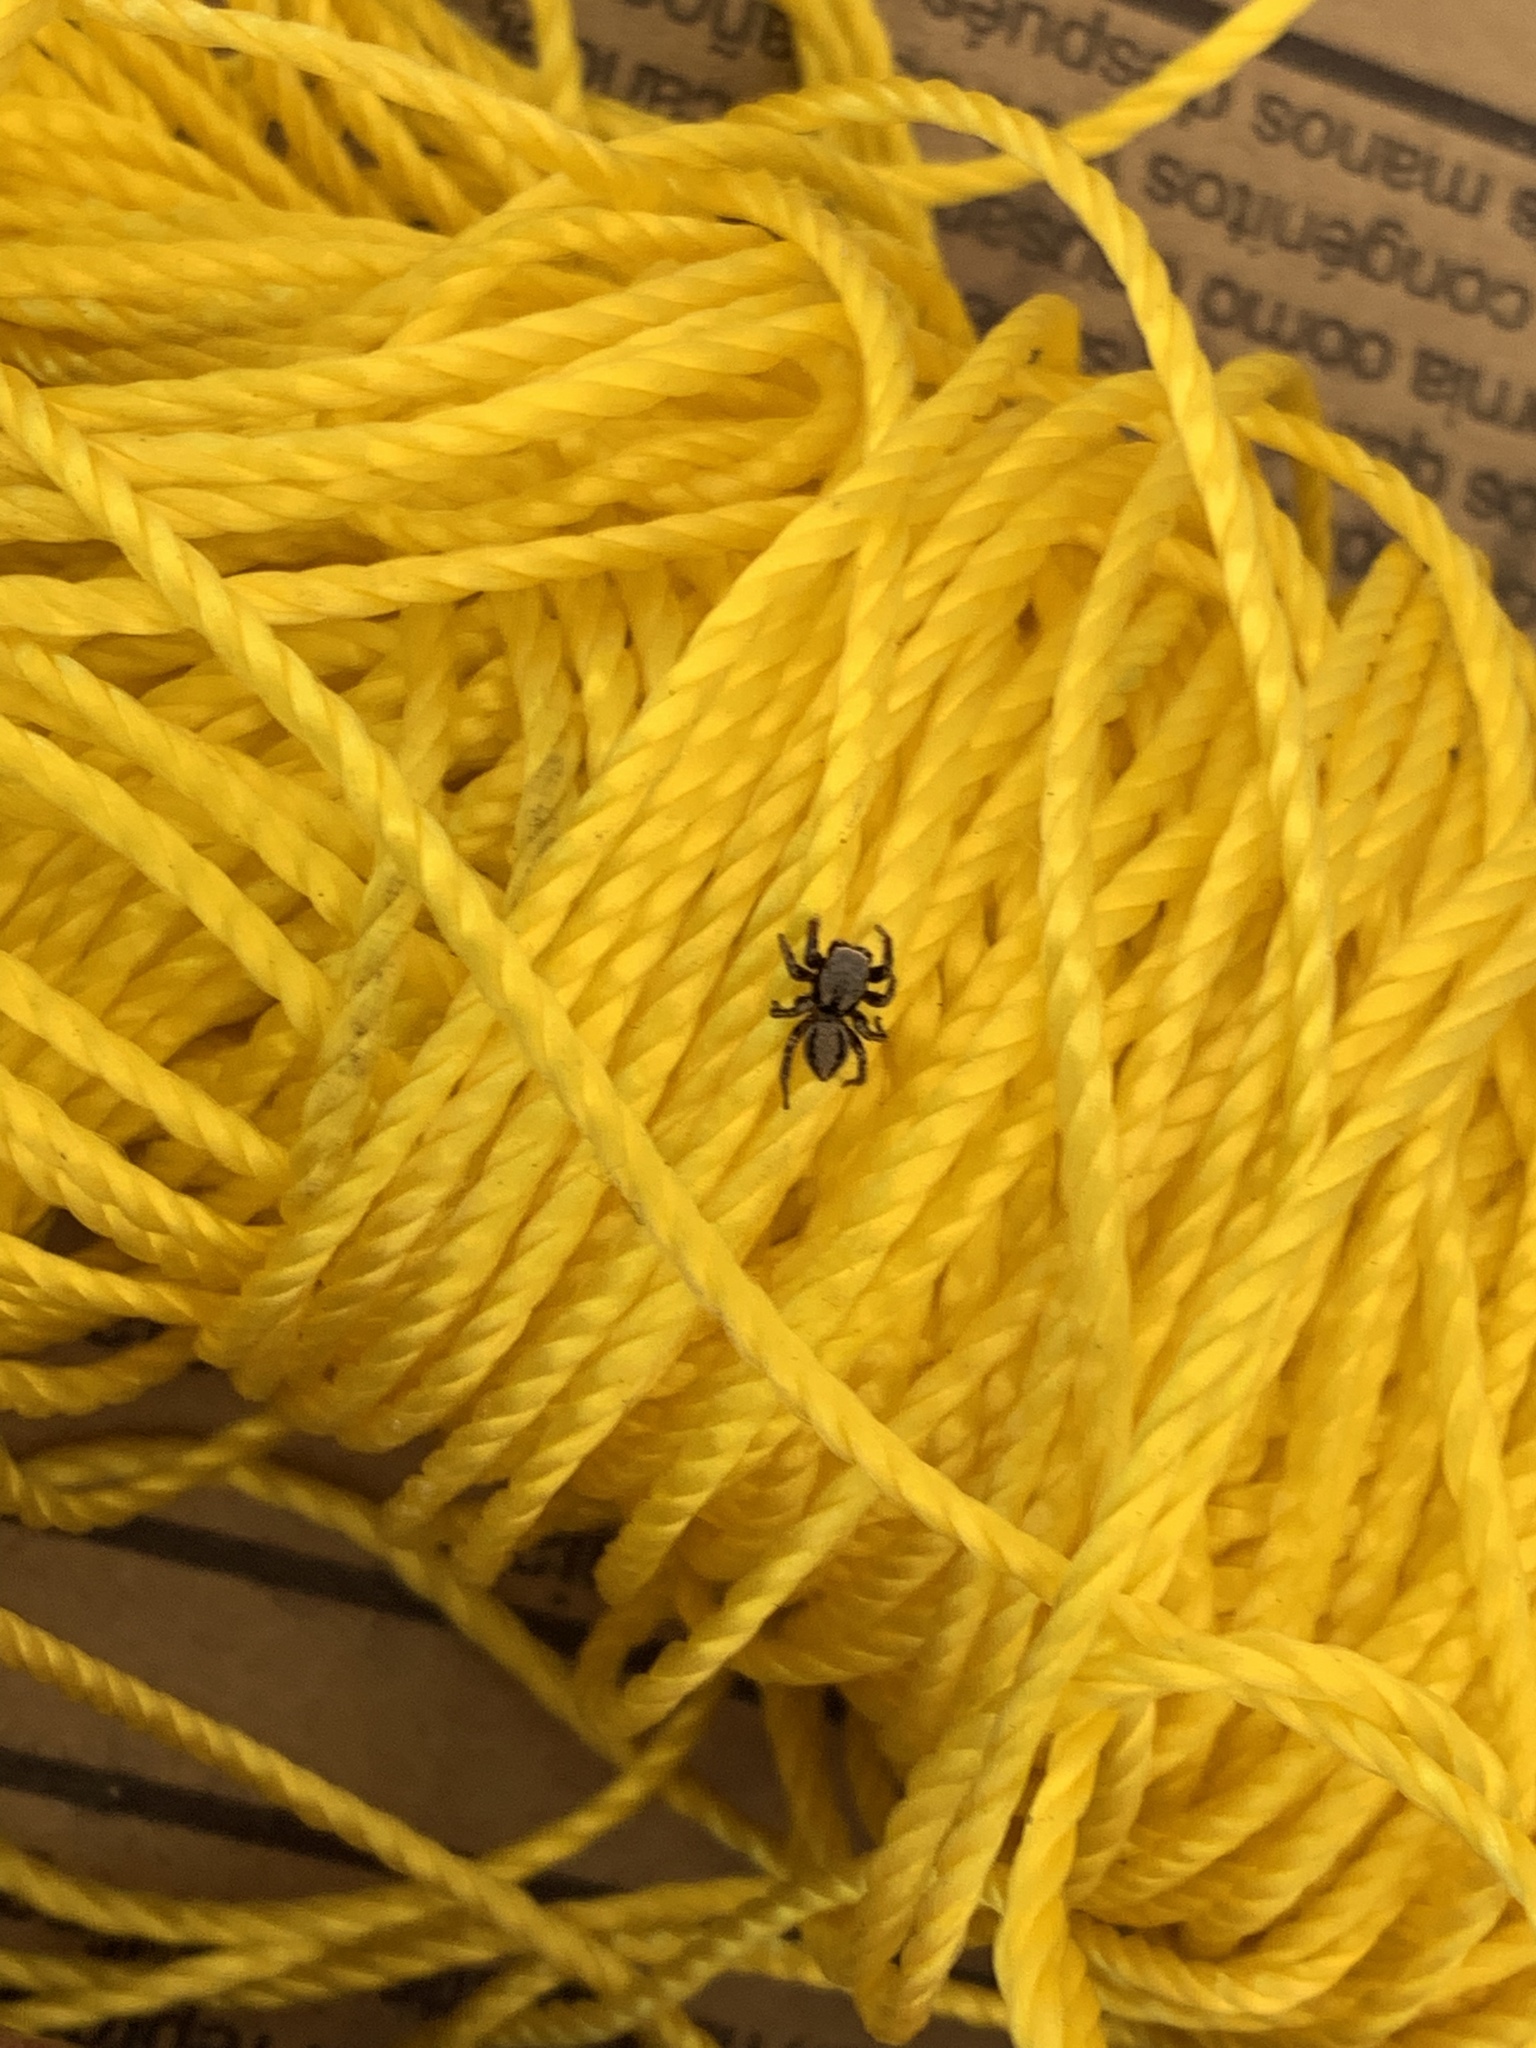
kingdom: Animalia
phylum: Arthropoda
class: Arachnida
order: Araneae
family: Salticidae
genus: Habronattus
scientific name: Habronattus altanus
